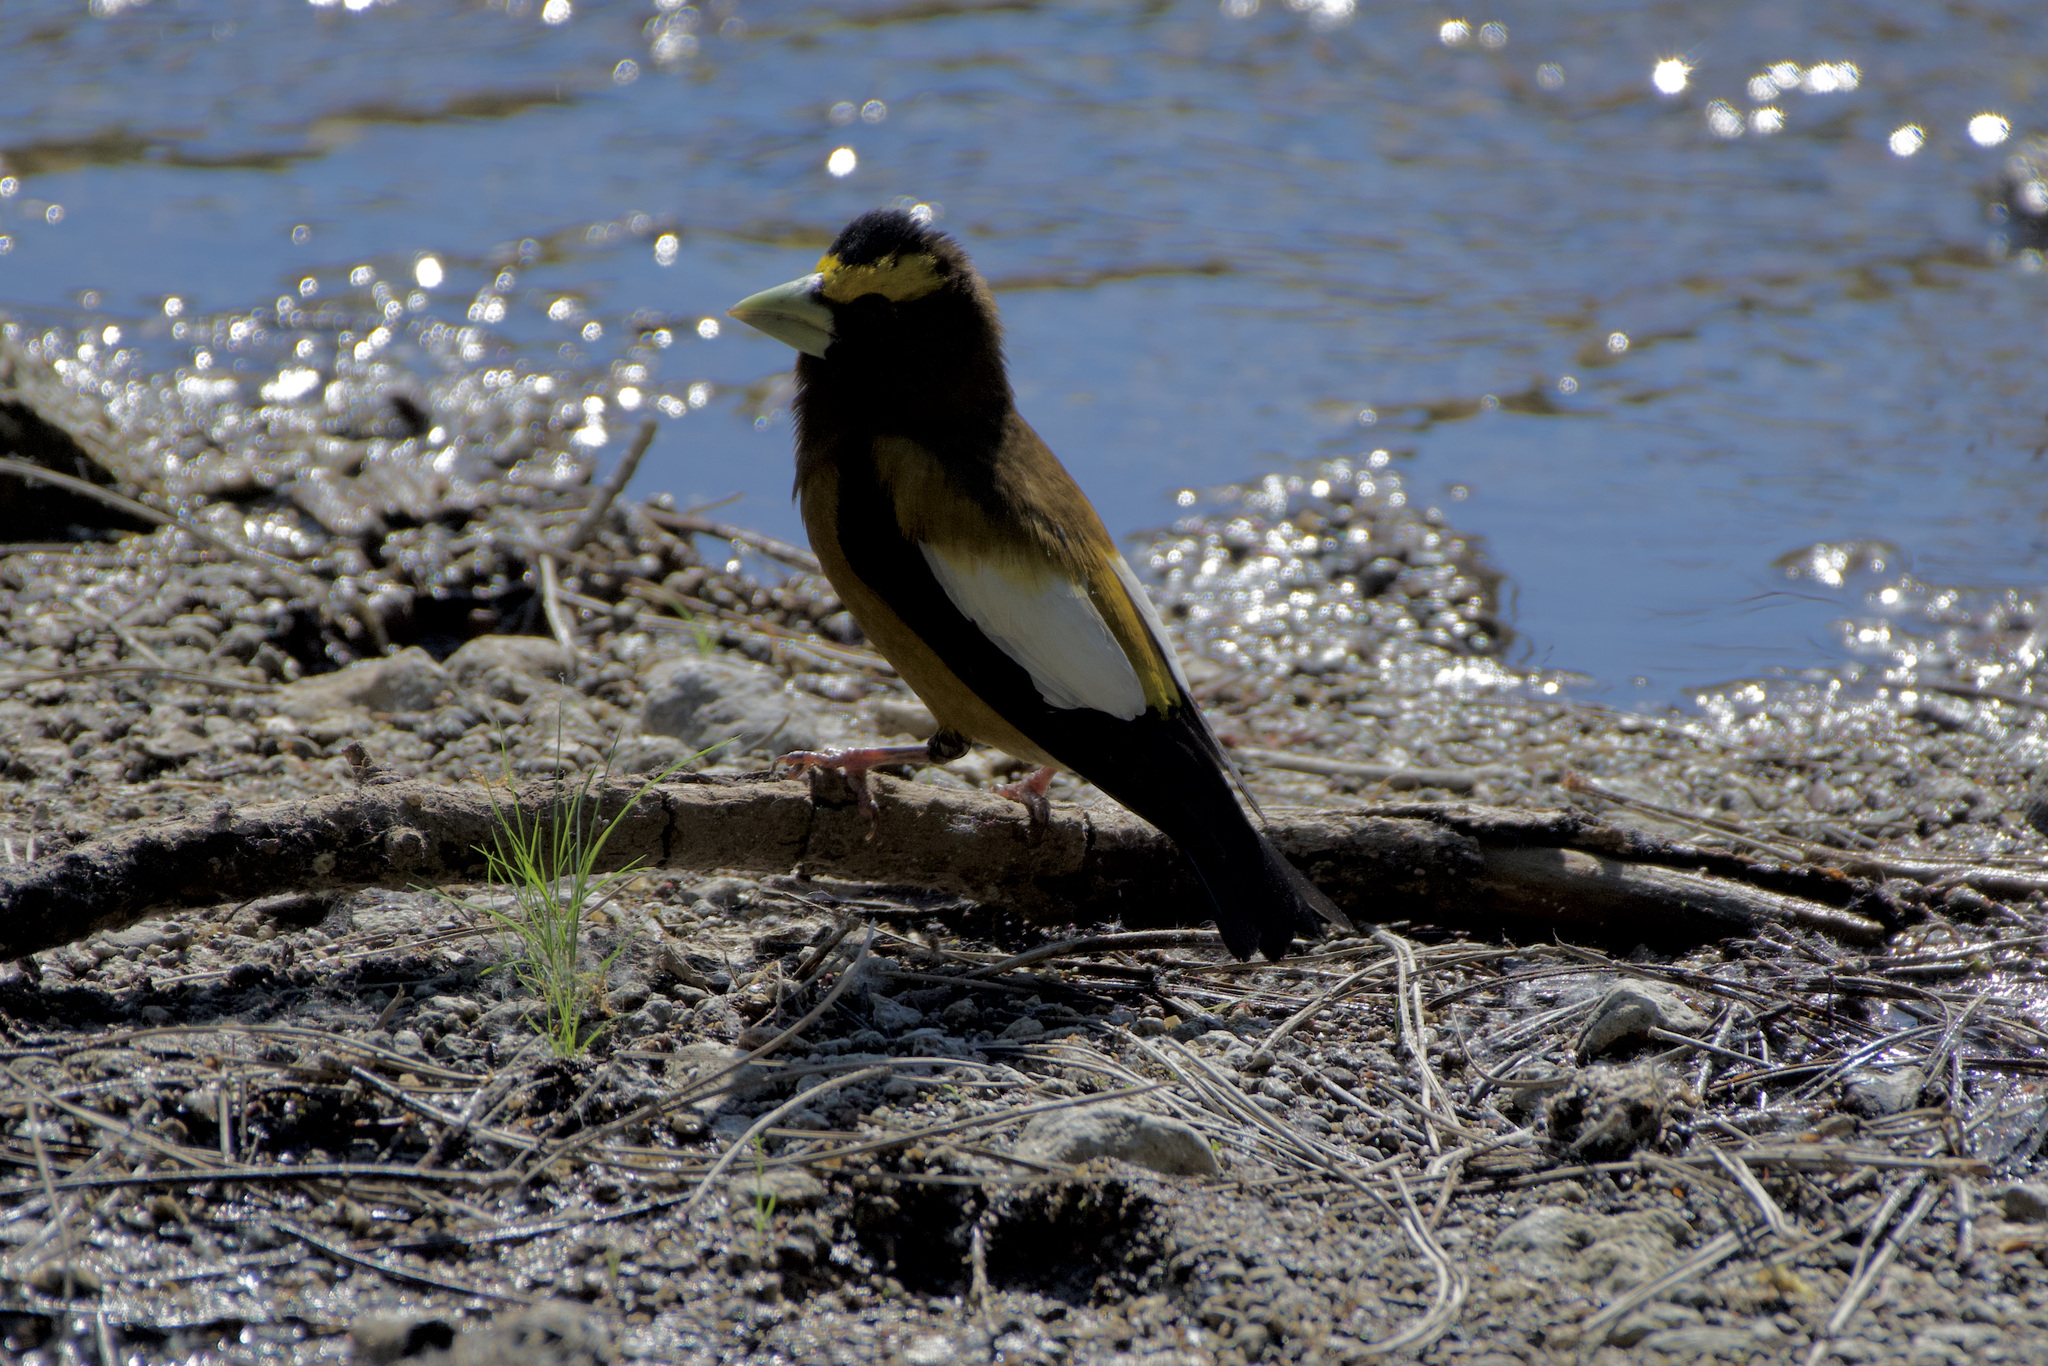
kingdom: Animalia
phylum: Chordata
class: Aves
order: Passeriformes
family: Fringillidae
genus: Hesperiphona
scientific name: Hesperiphona vespertina
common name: Evening grosbeak
